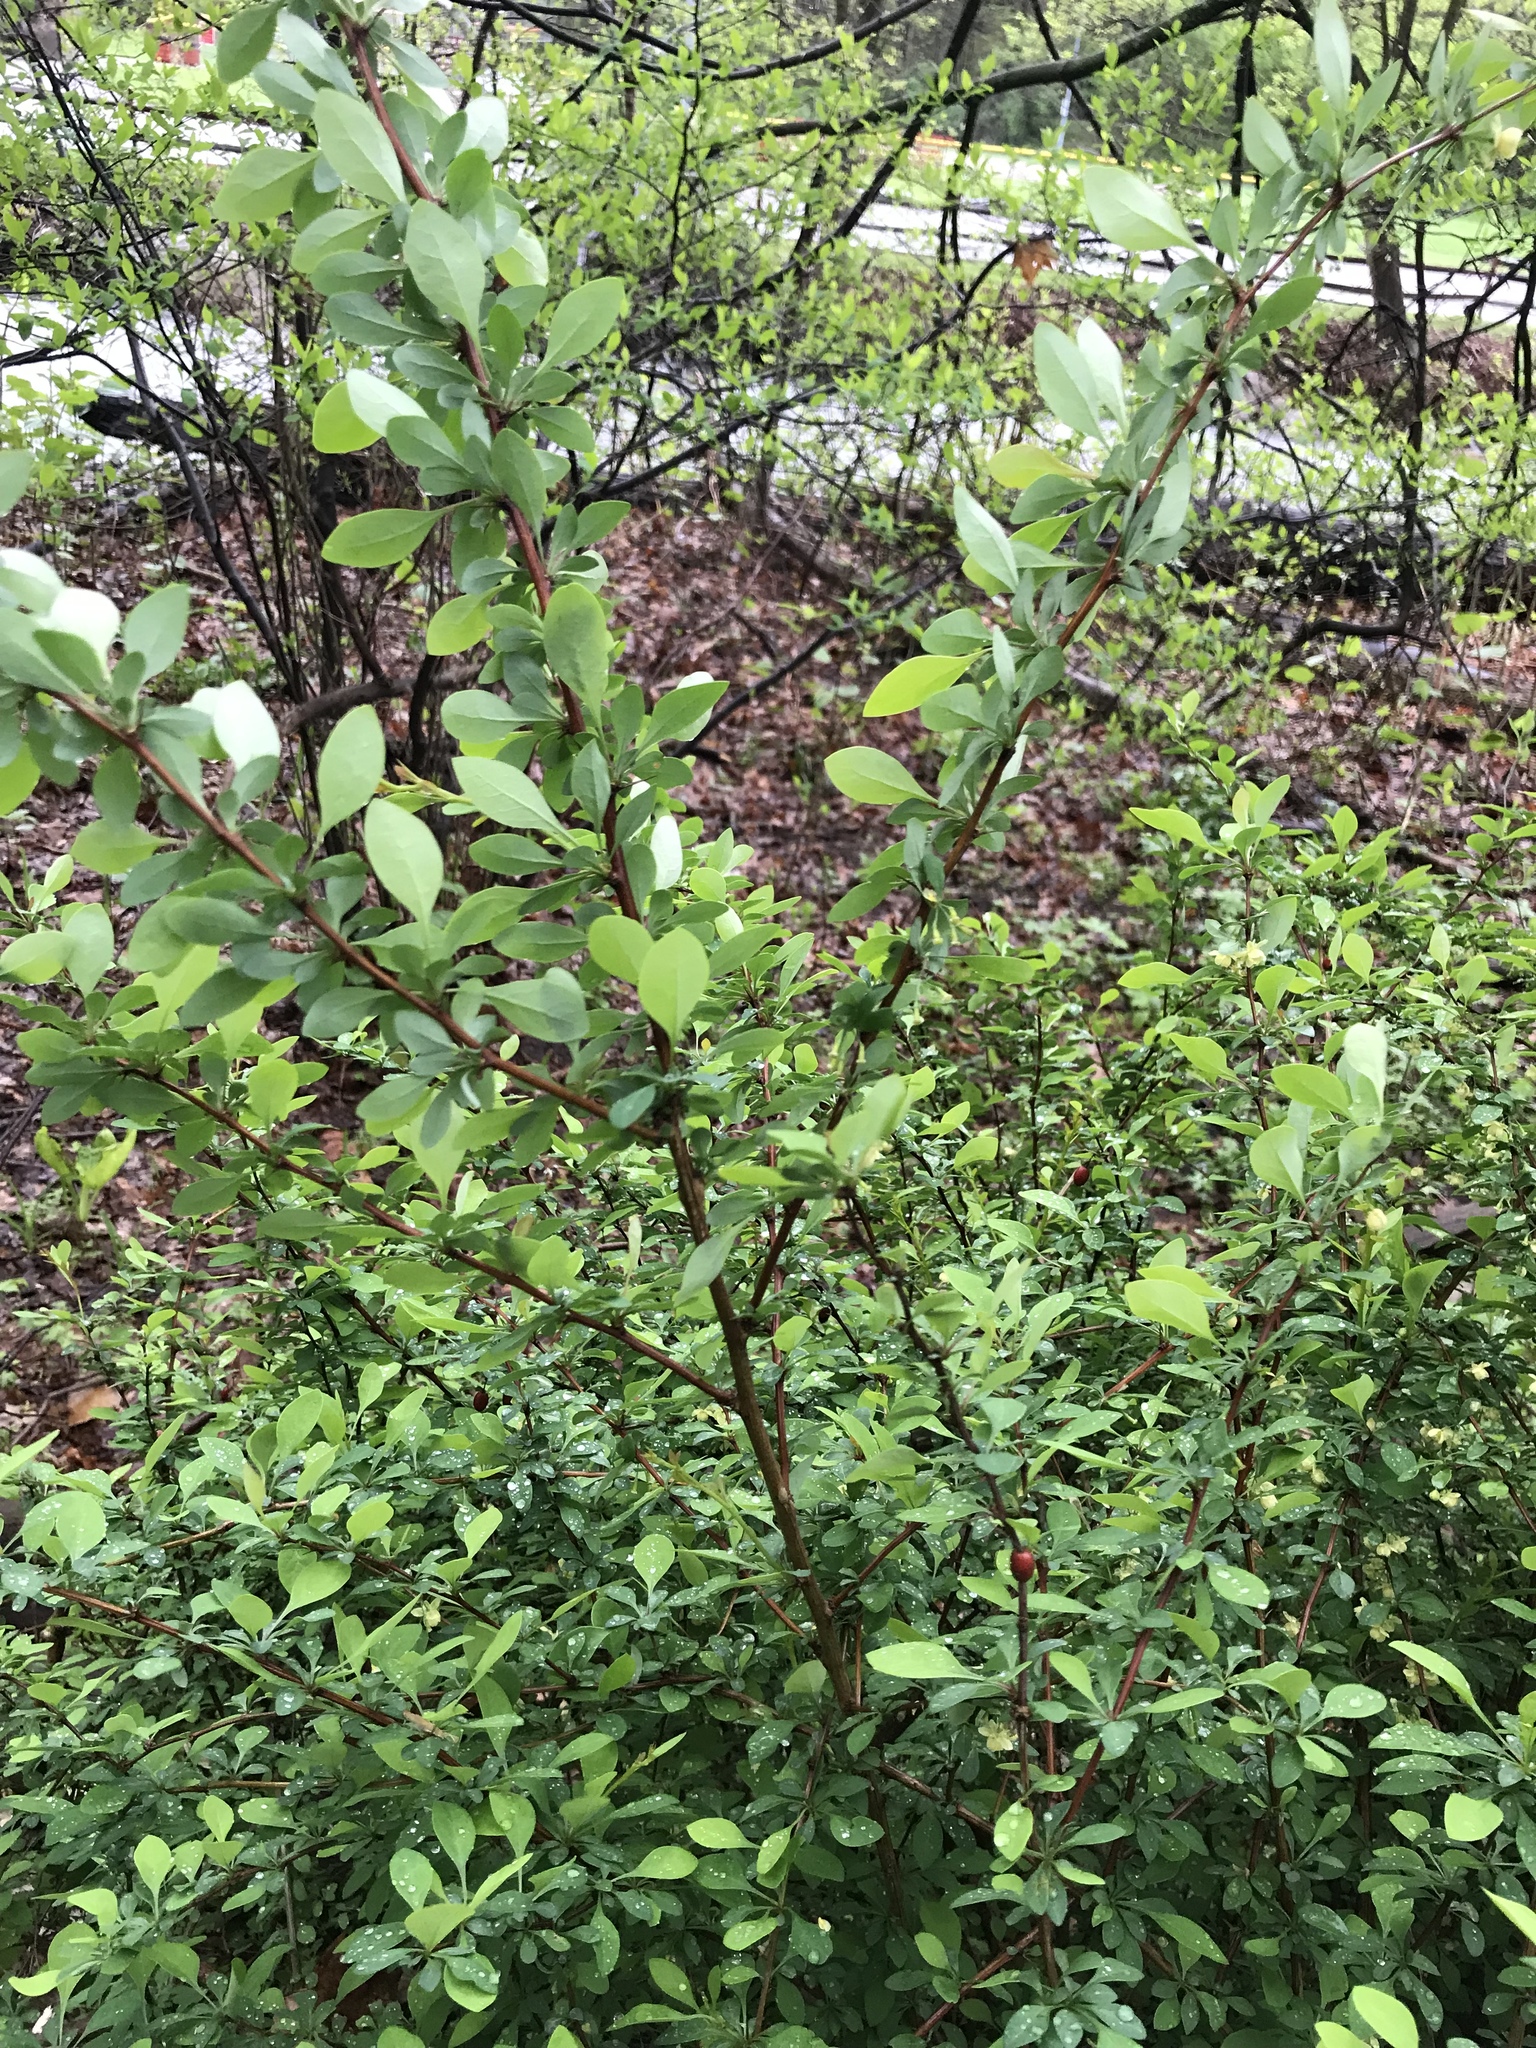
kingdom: Plantae
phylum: Tracheophyta
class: Magnoliopsida
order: Ranunculales
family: Berberidaceae
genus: Berberis
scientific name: Berberis thunbergii
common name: Japanese barberry
